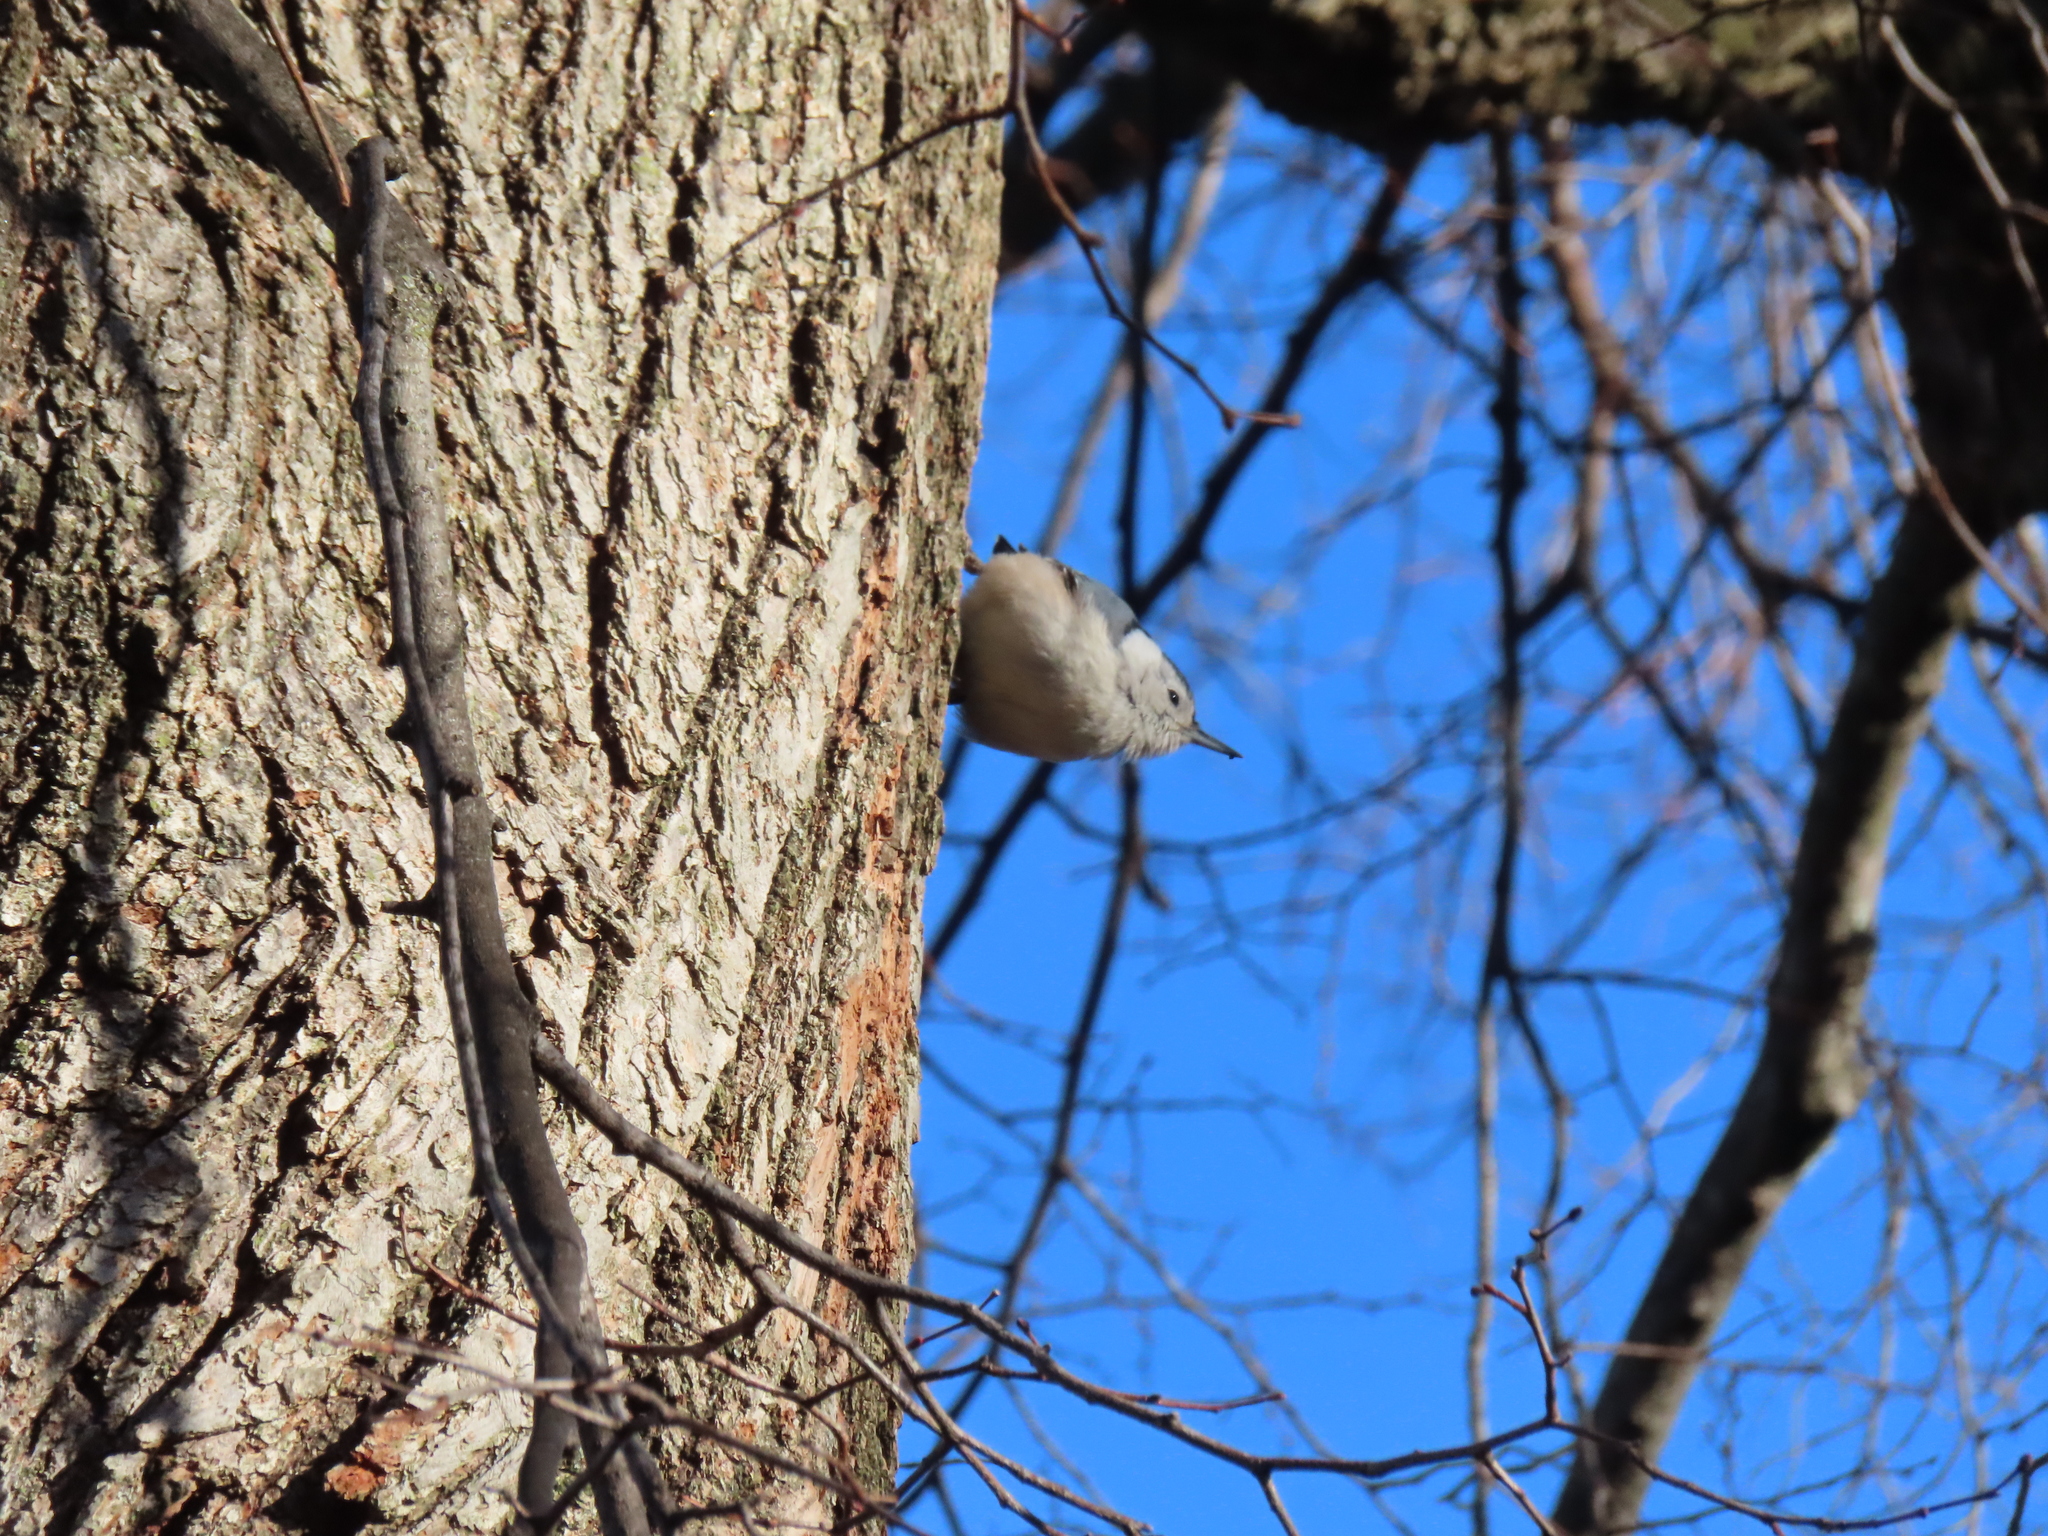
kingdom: Animalia
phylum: Chordata
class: Aves
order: Passeriformes
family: Sittidae
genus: Sitta
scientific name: Sitta carolinensis
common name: White-breasted nuthatch
